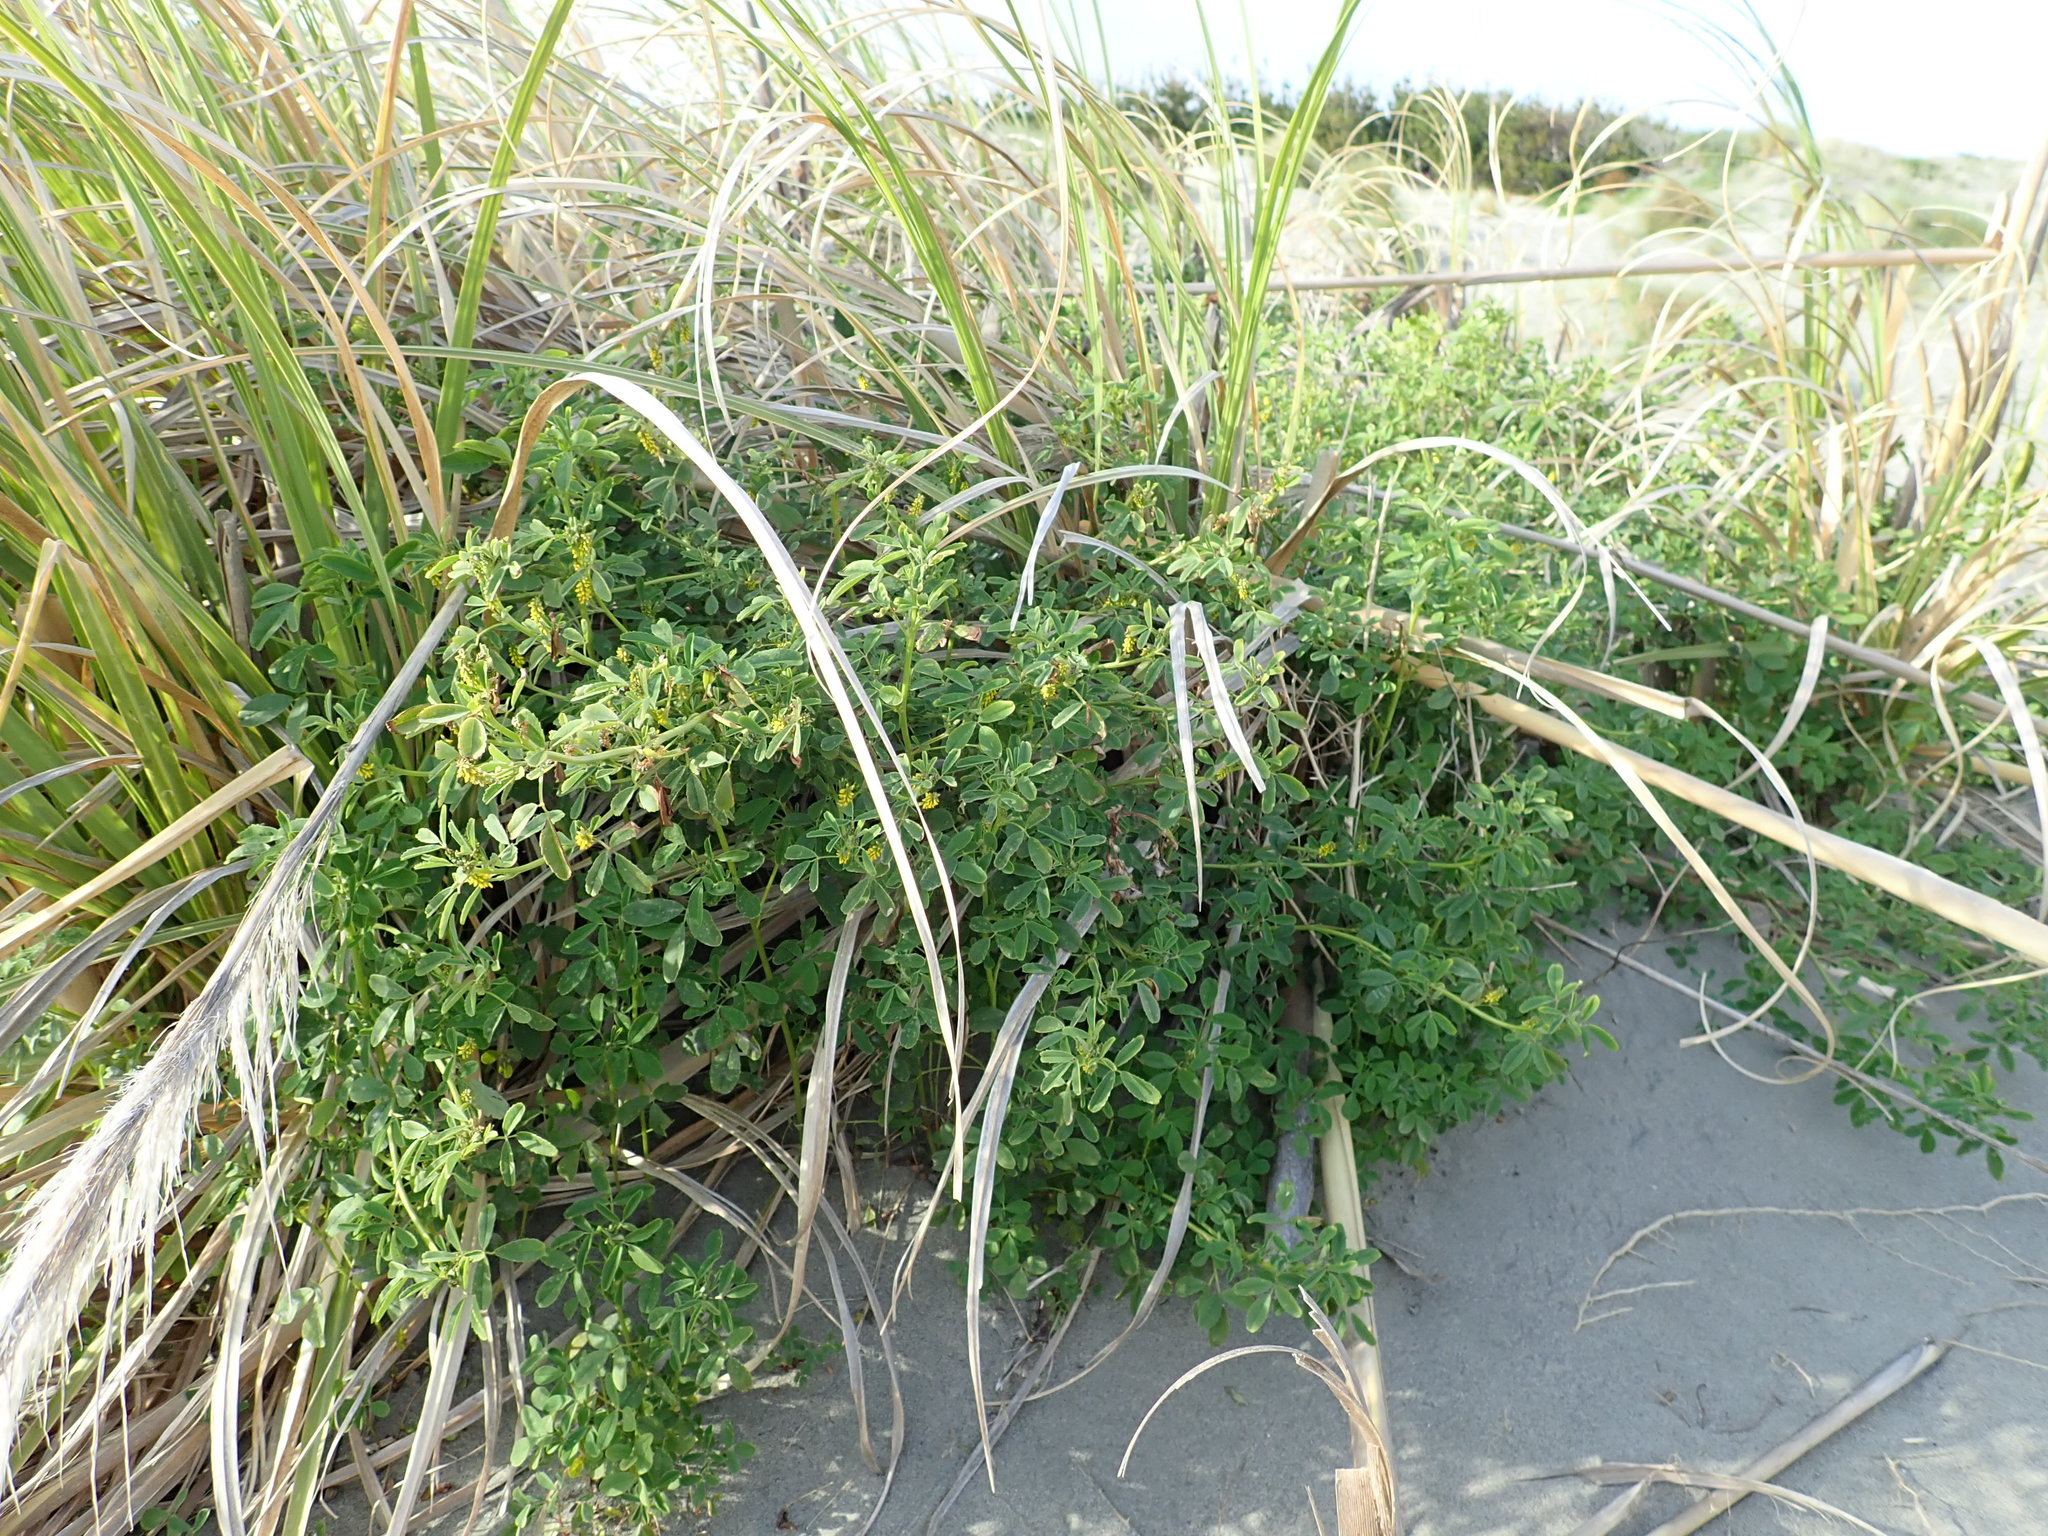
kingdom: Plantae
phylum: Tracheophyta
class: Magnoliopsida
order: Fabales
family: Fabaceae
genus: Melilotus
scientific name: Melilotus indicus
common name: Small melilot
